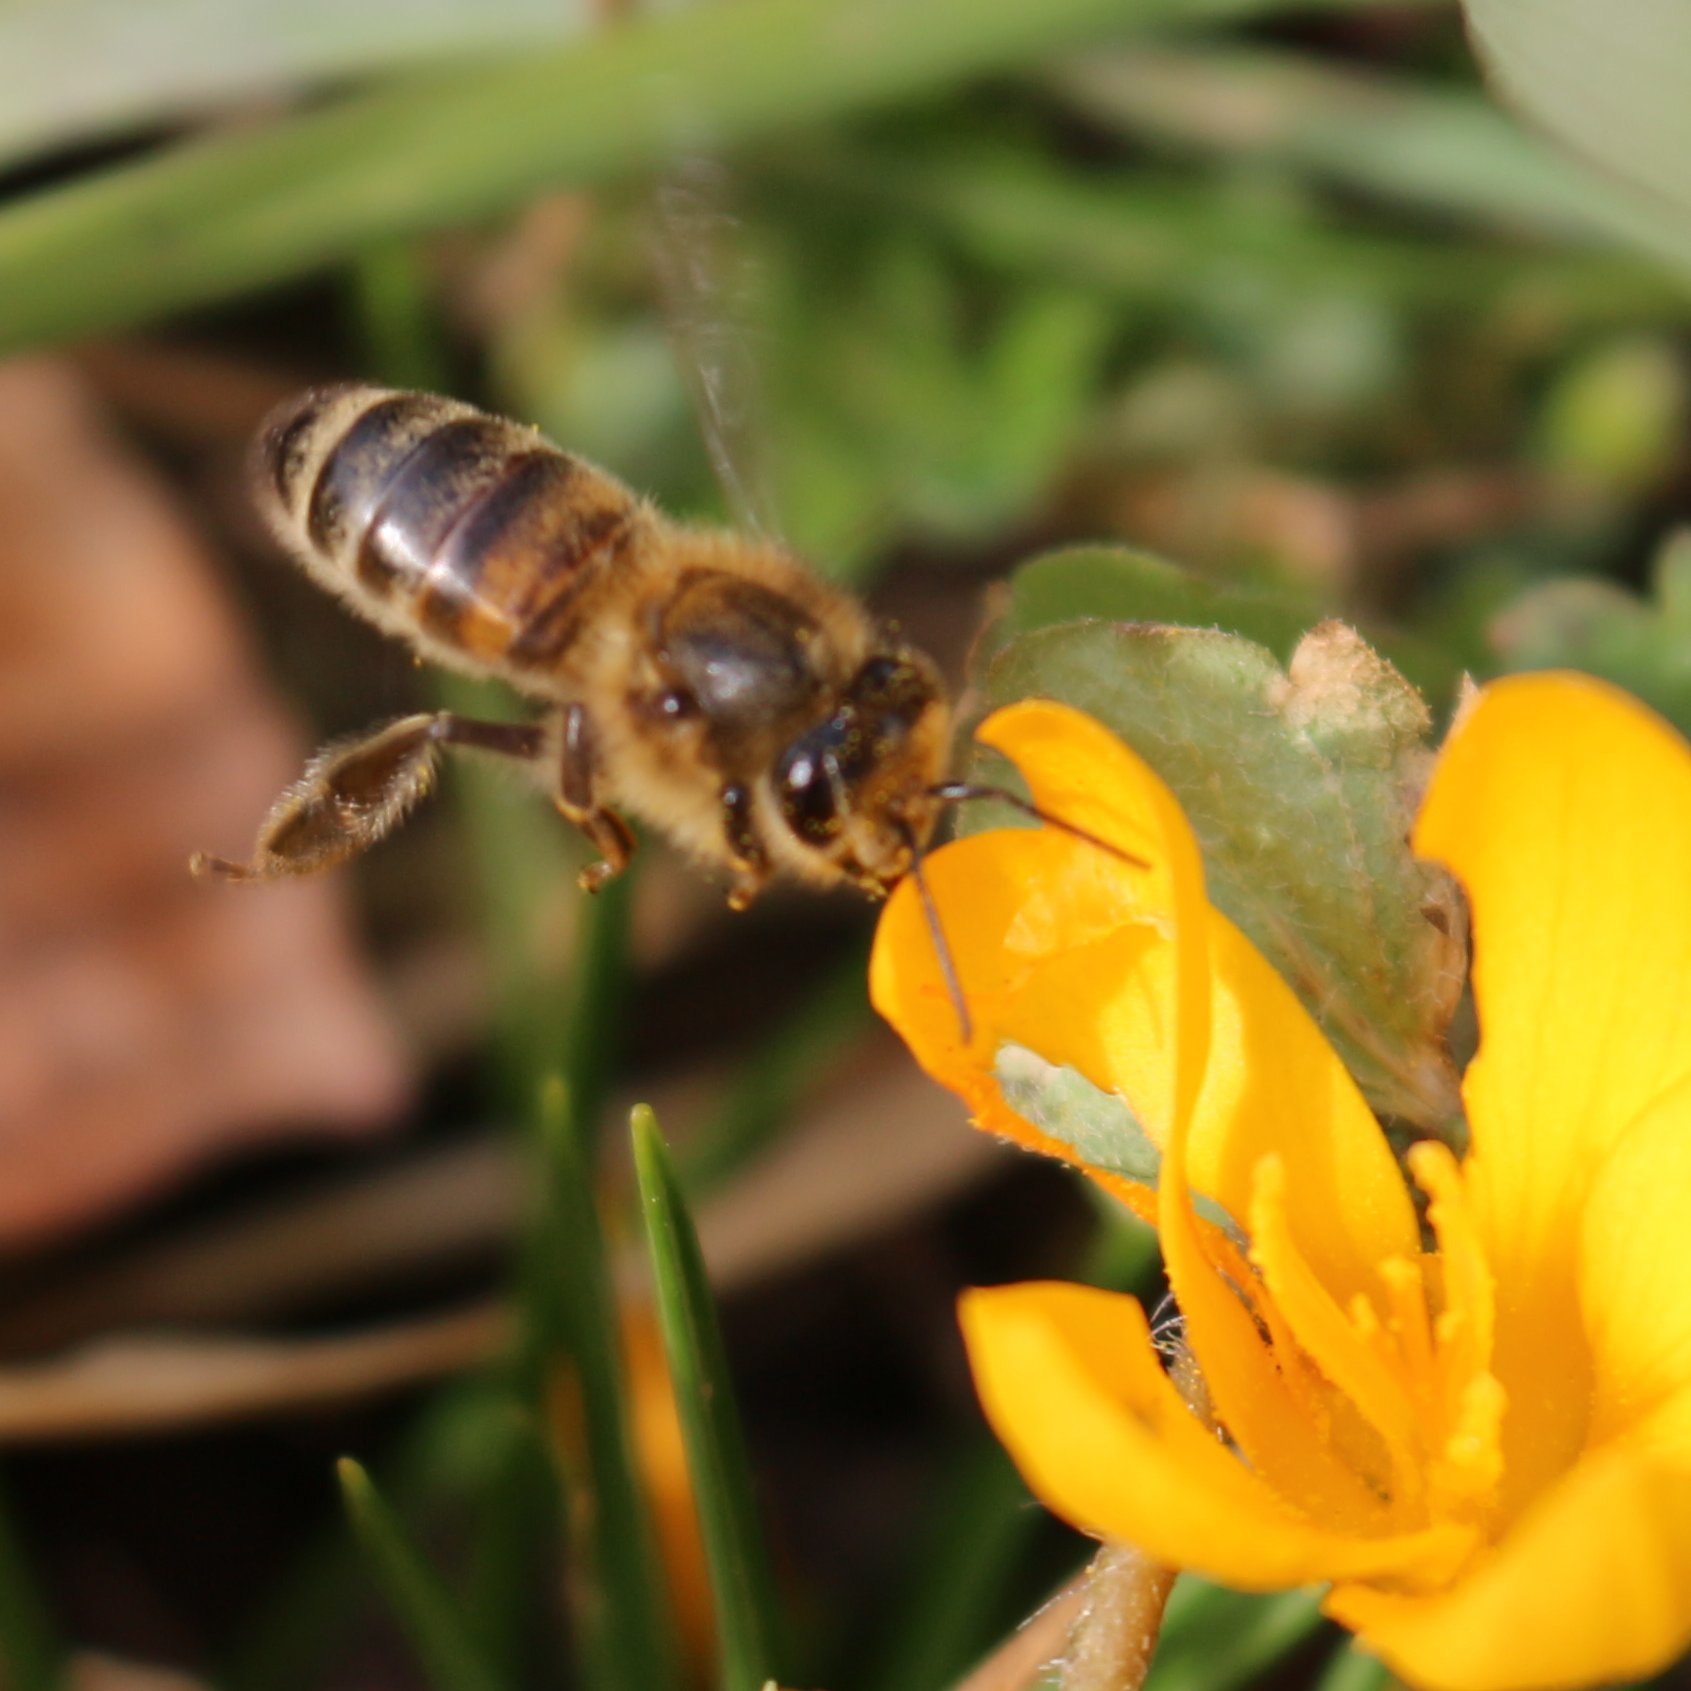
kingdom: Animalia
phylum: Arthropoda
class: Insecta
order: Hymenoptera
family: Apidae
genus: Apis
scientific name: Apis mellifera
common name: Honey bee
